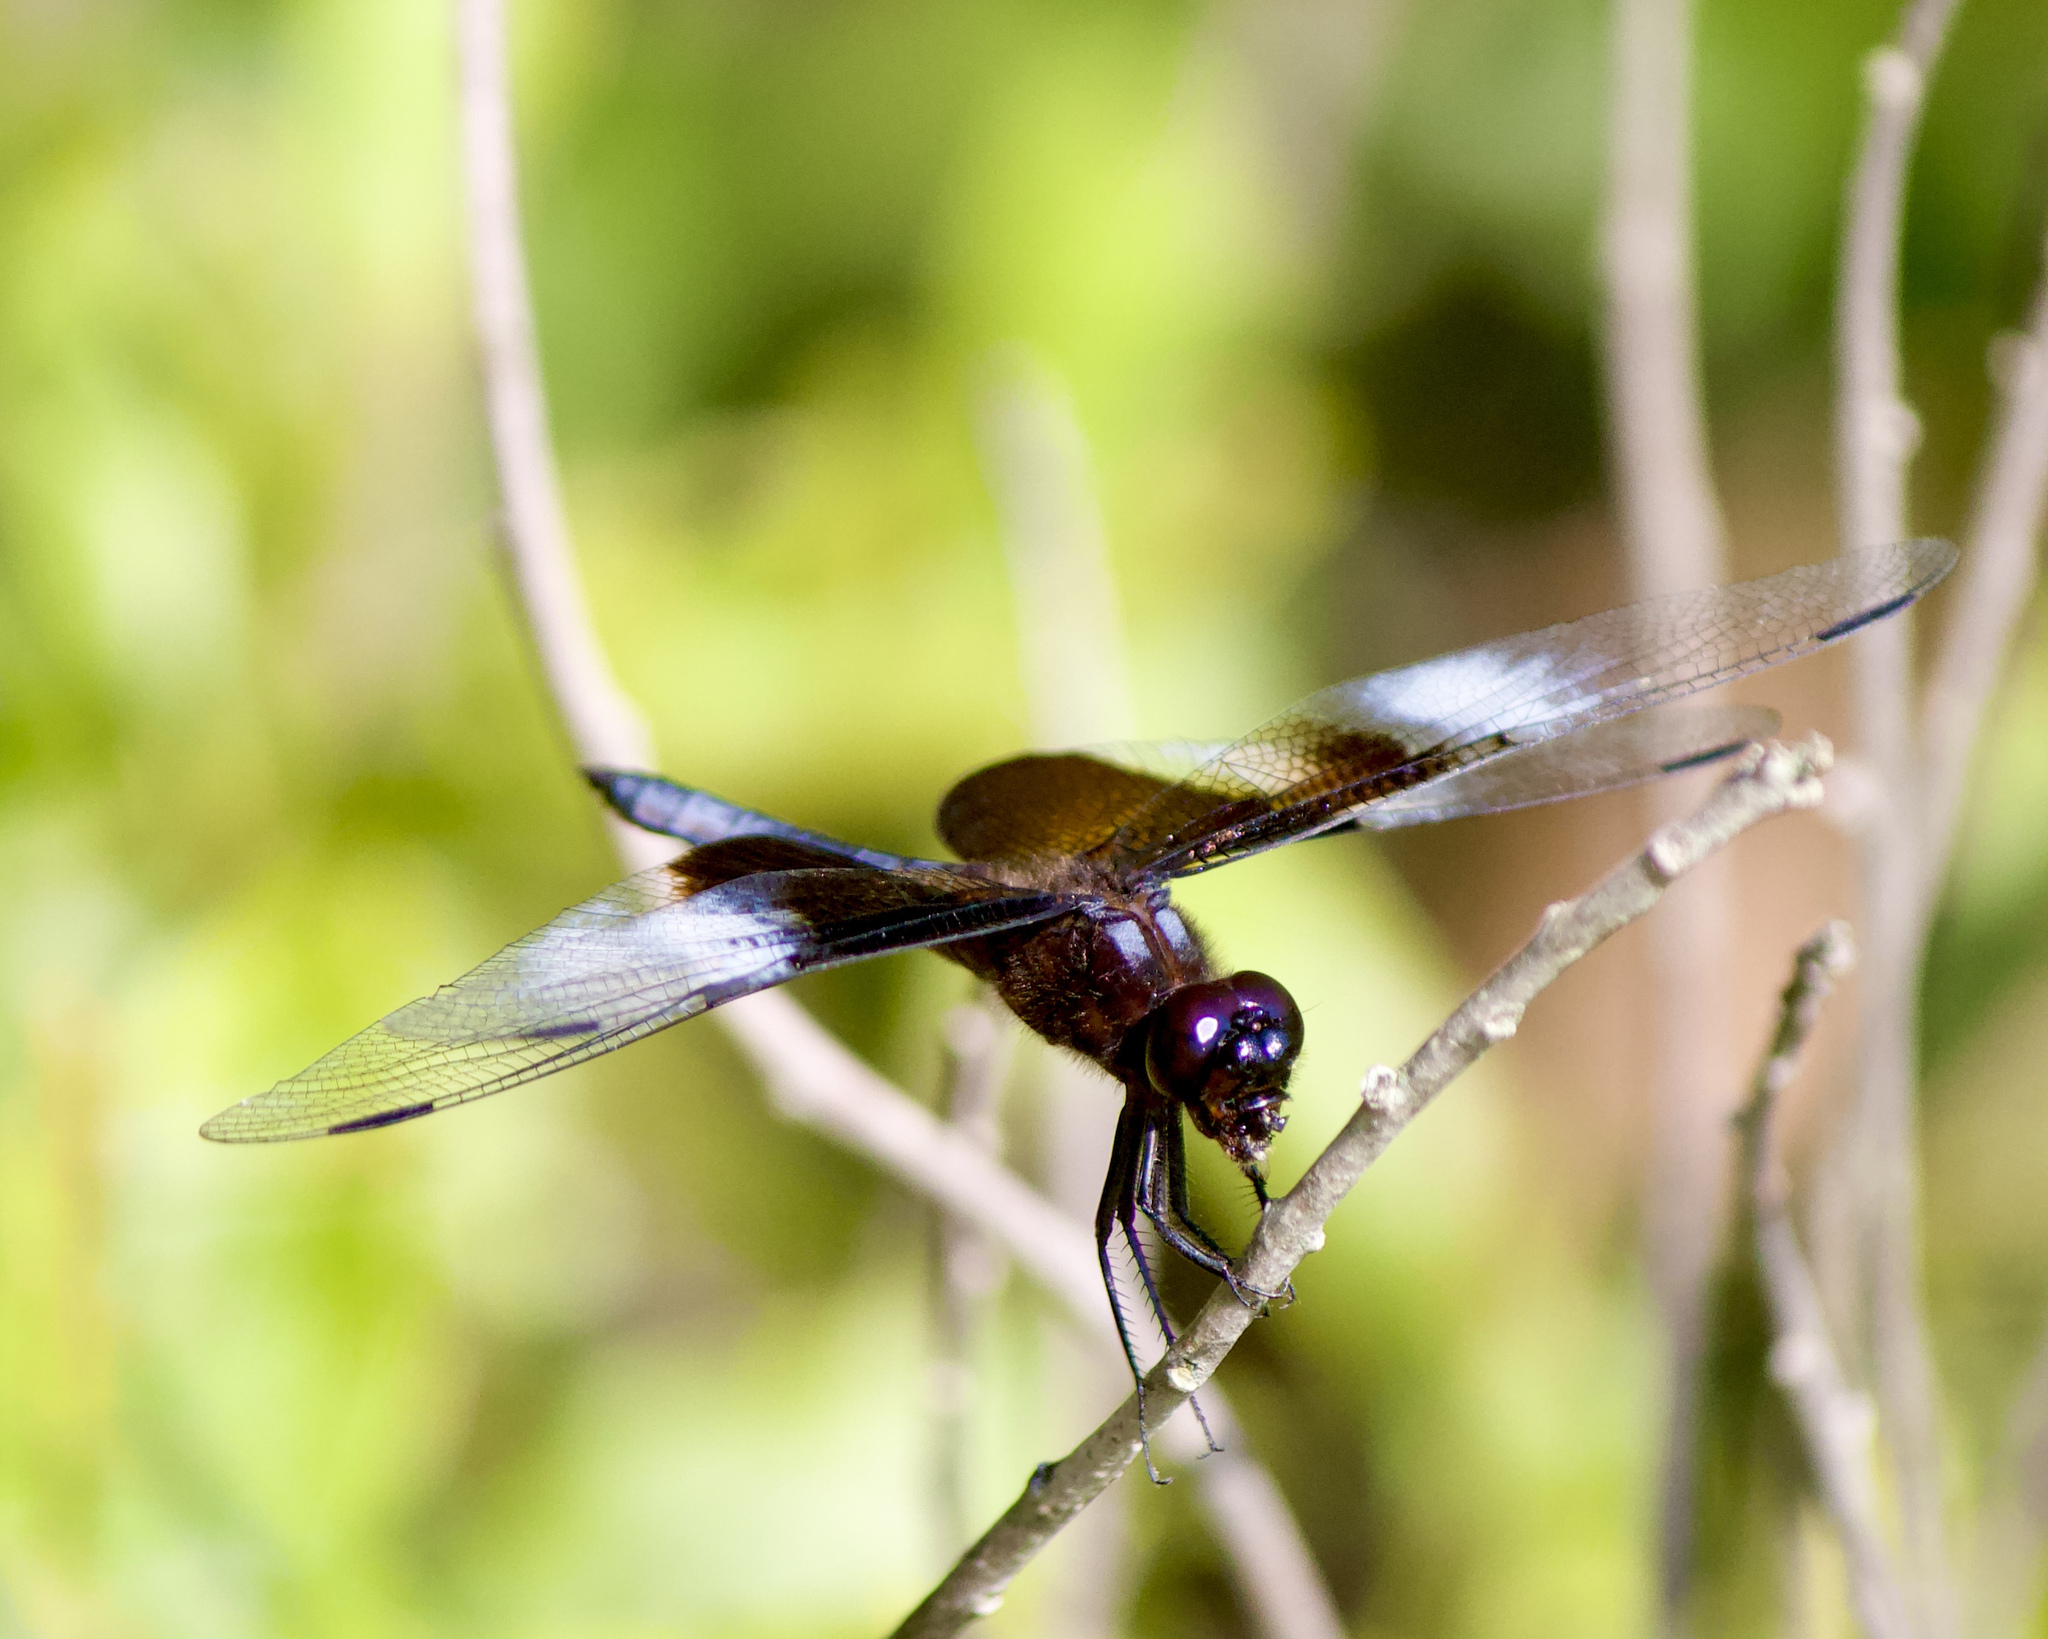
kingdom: Animalia
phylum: Arthropoda
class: Insecta
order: Odonata
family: Libellulidae
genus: Libellula
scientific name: Libellula luctuosa
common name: Widow skimmer
